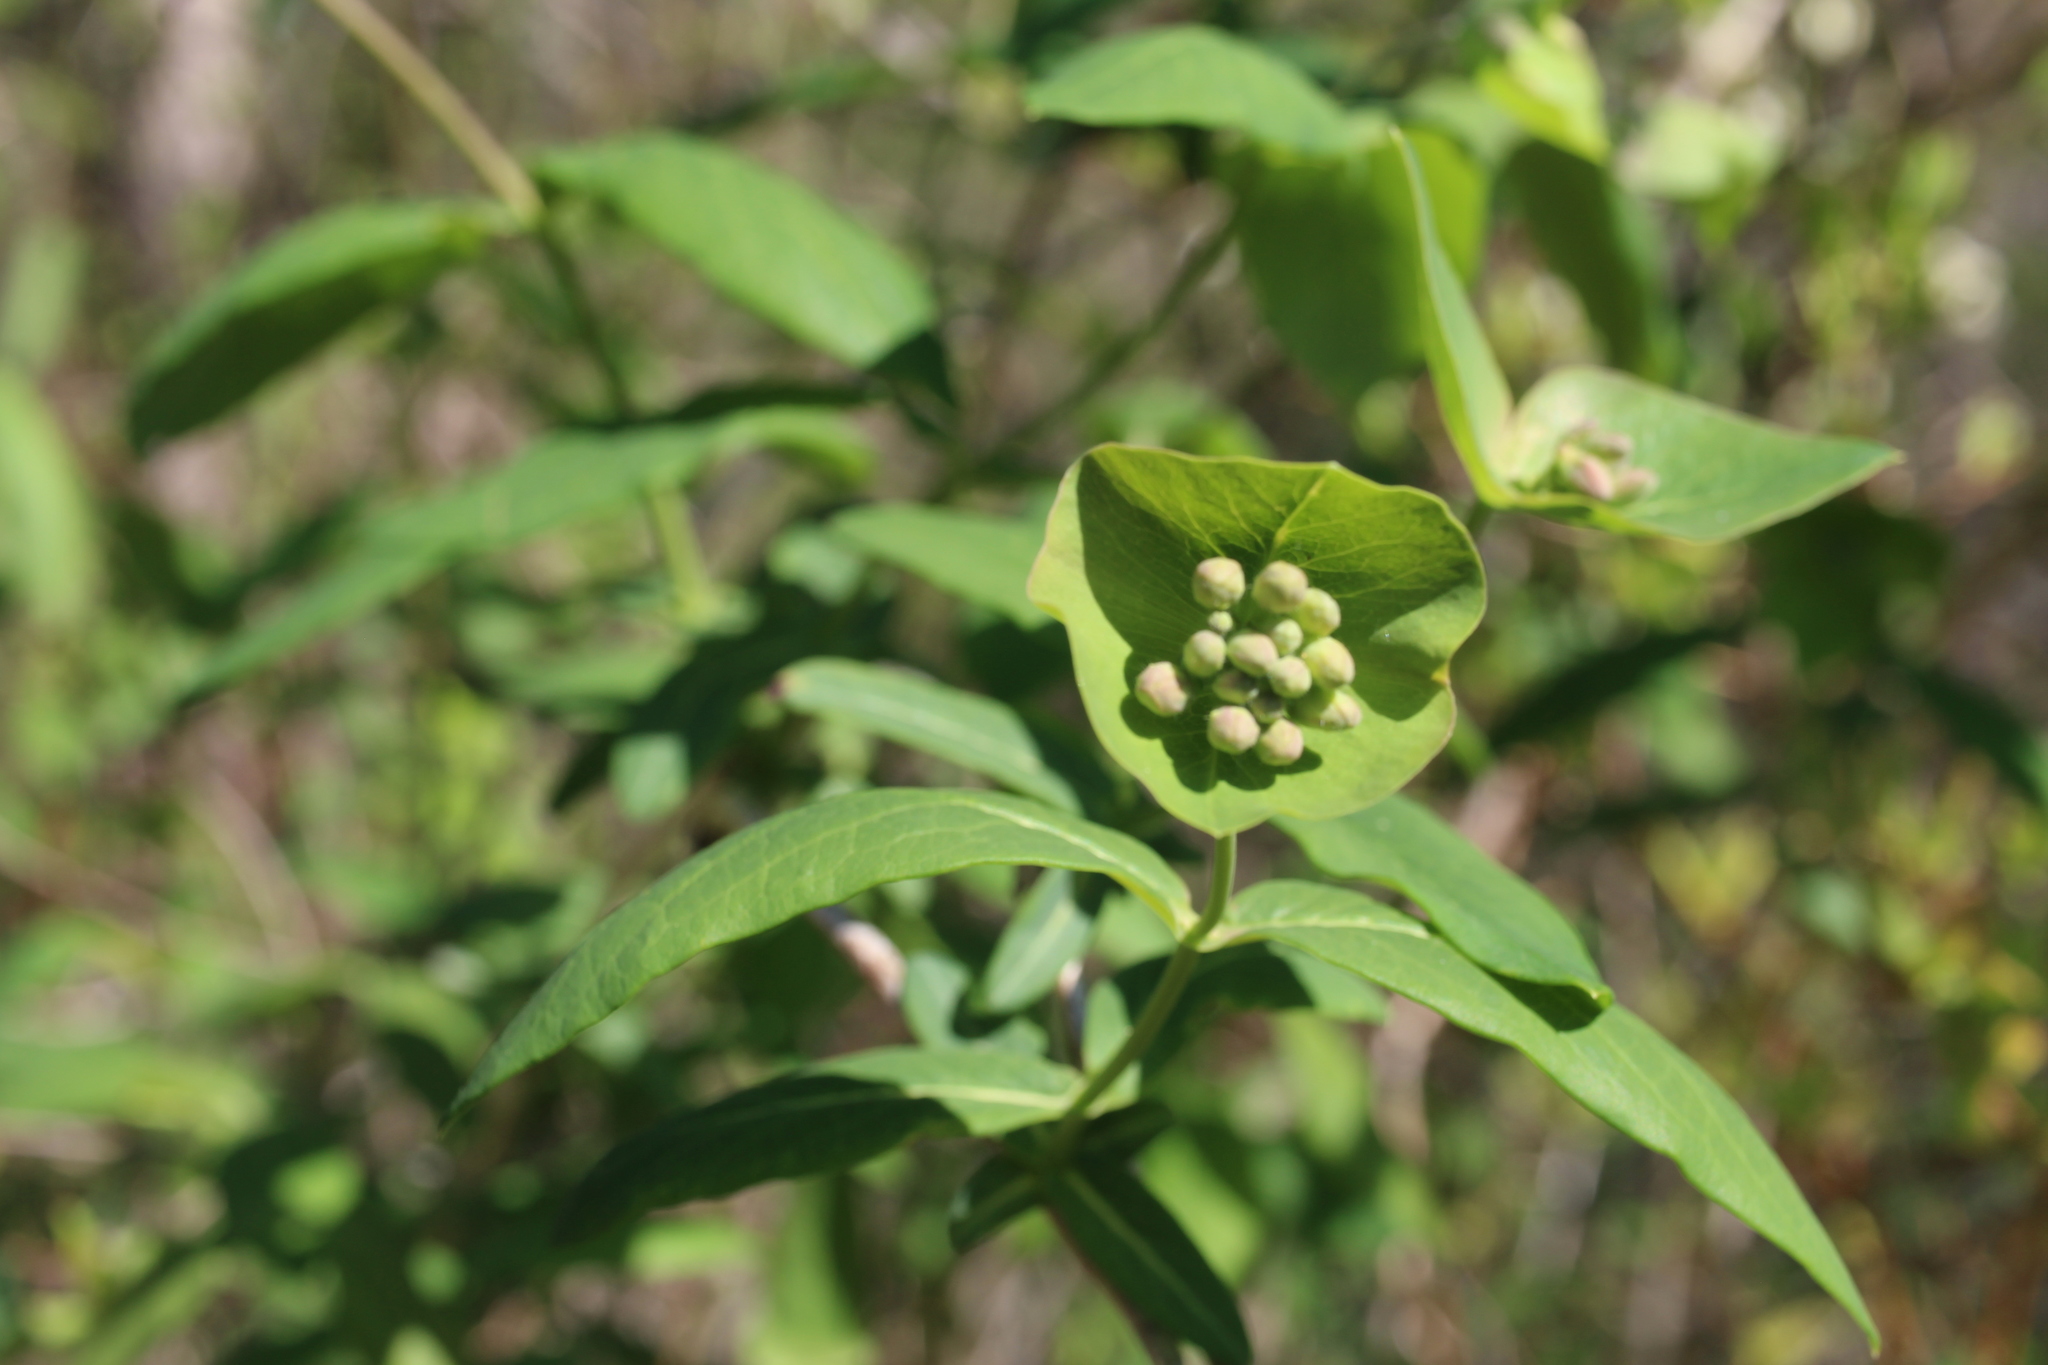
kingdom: Plantae
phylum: Tracheophyta
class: Magnoliopsida
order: Dipsacales
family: Caprifoliaceae
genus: Lonicera
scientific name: Lonicera dioica
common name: Limber honeysuckle
